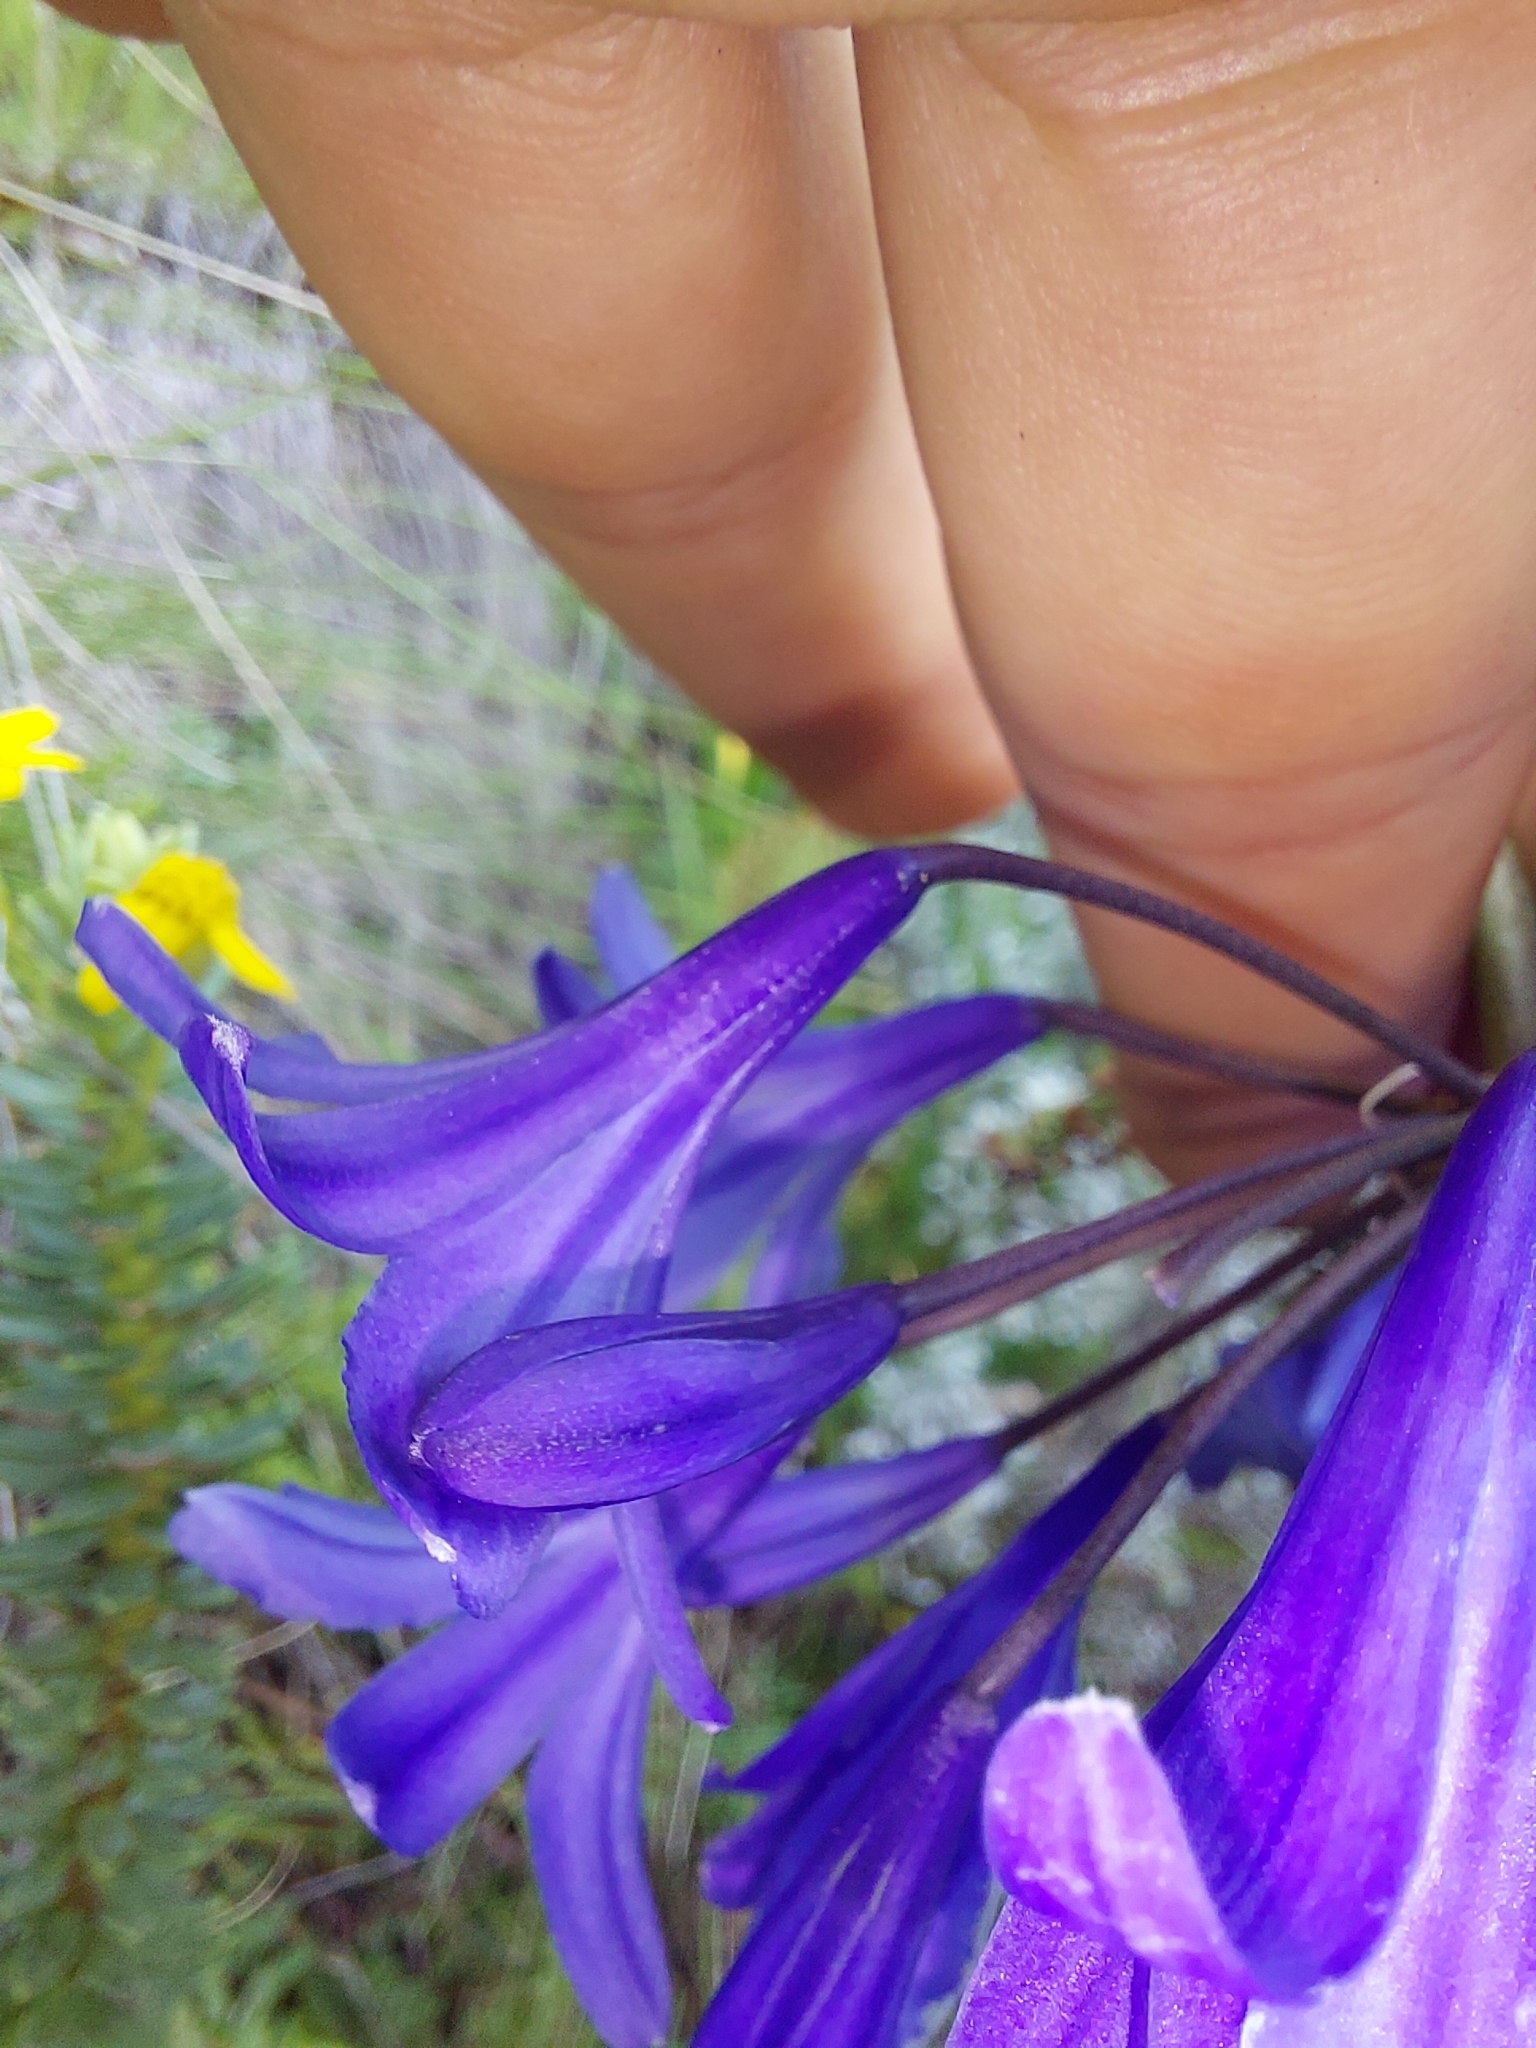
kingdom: Plantae
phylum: Tracheophyta
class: Liliopsida
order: Asparagales
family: Amaryllidaceae
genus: Agapanthus
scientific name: Agapanthus campanulatus
